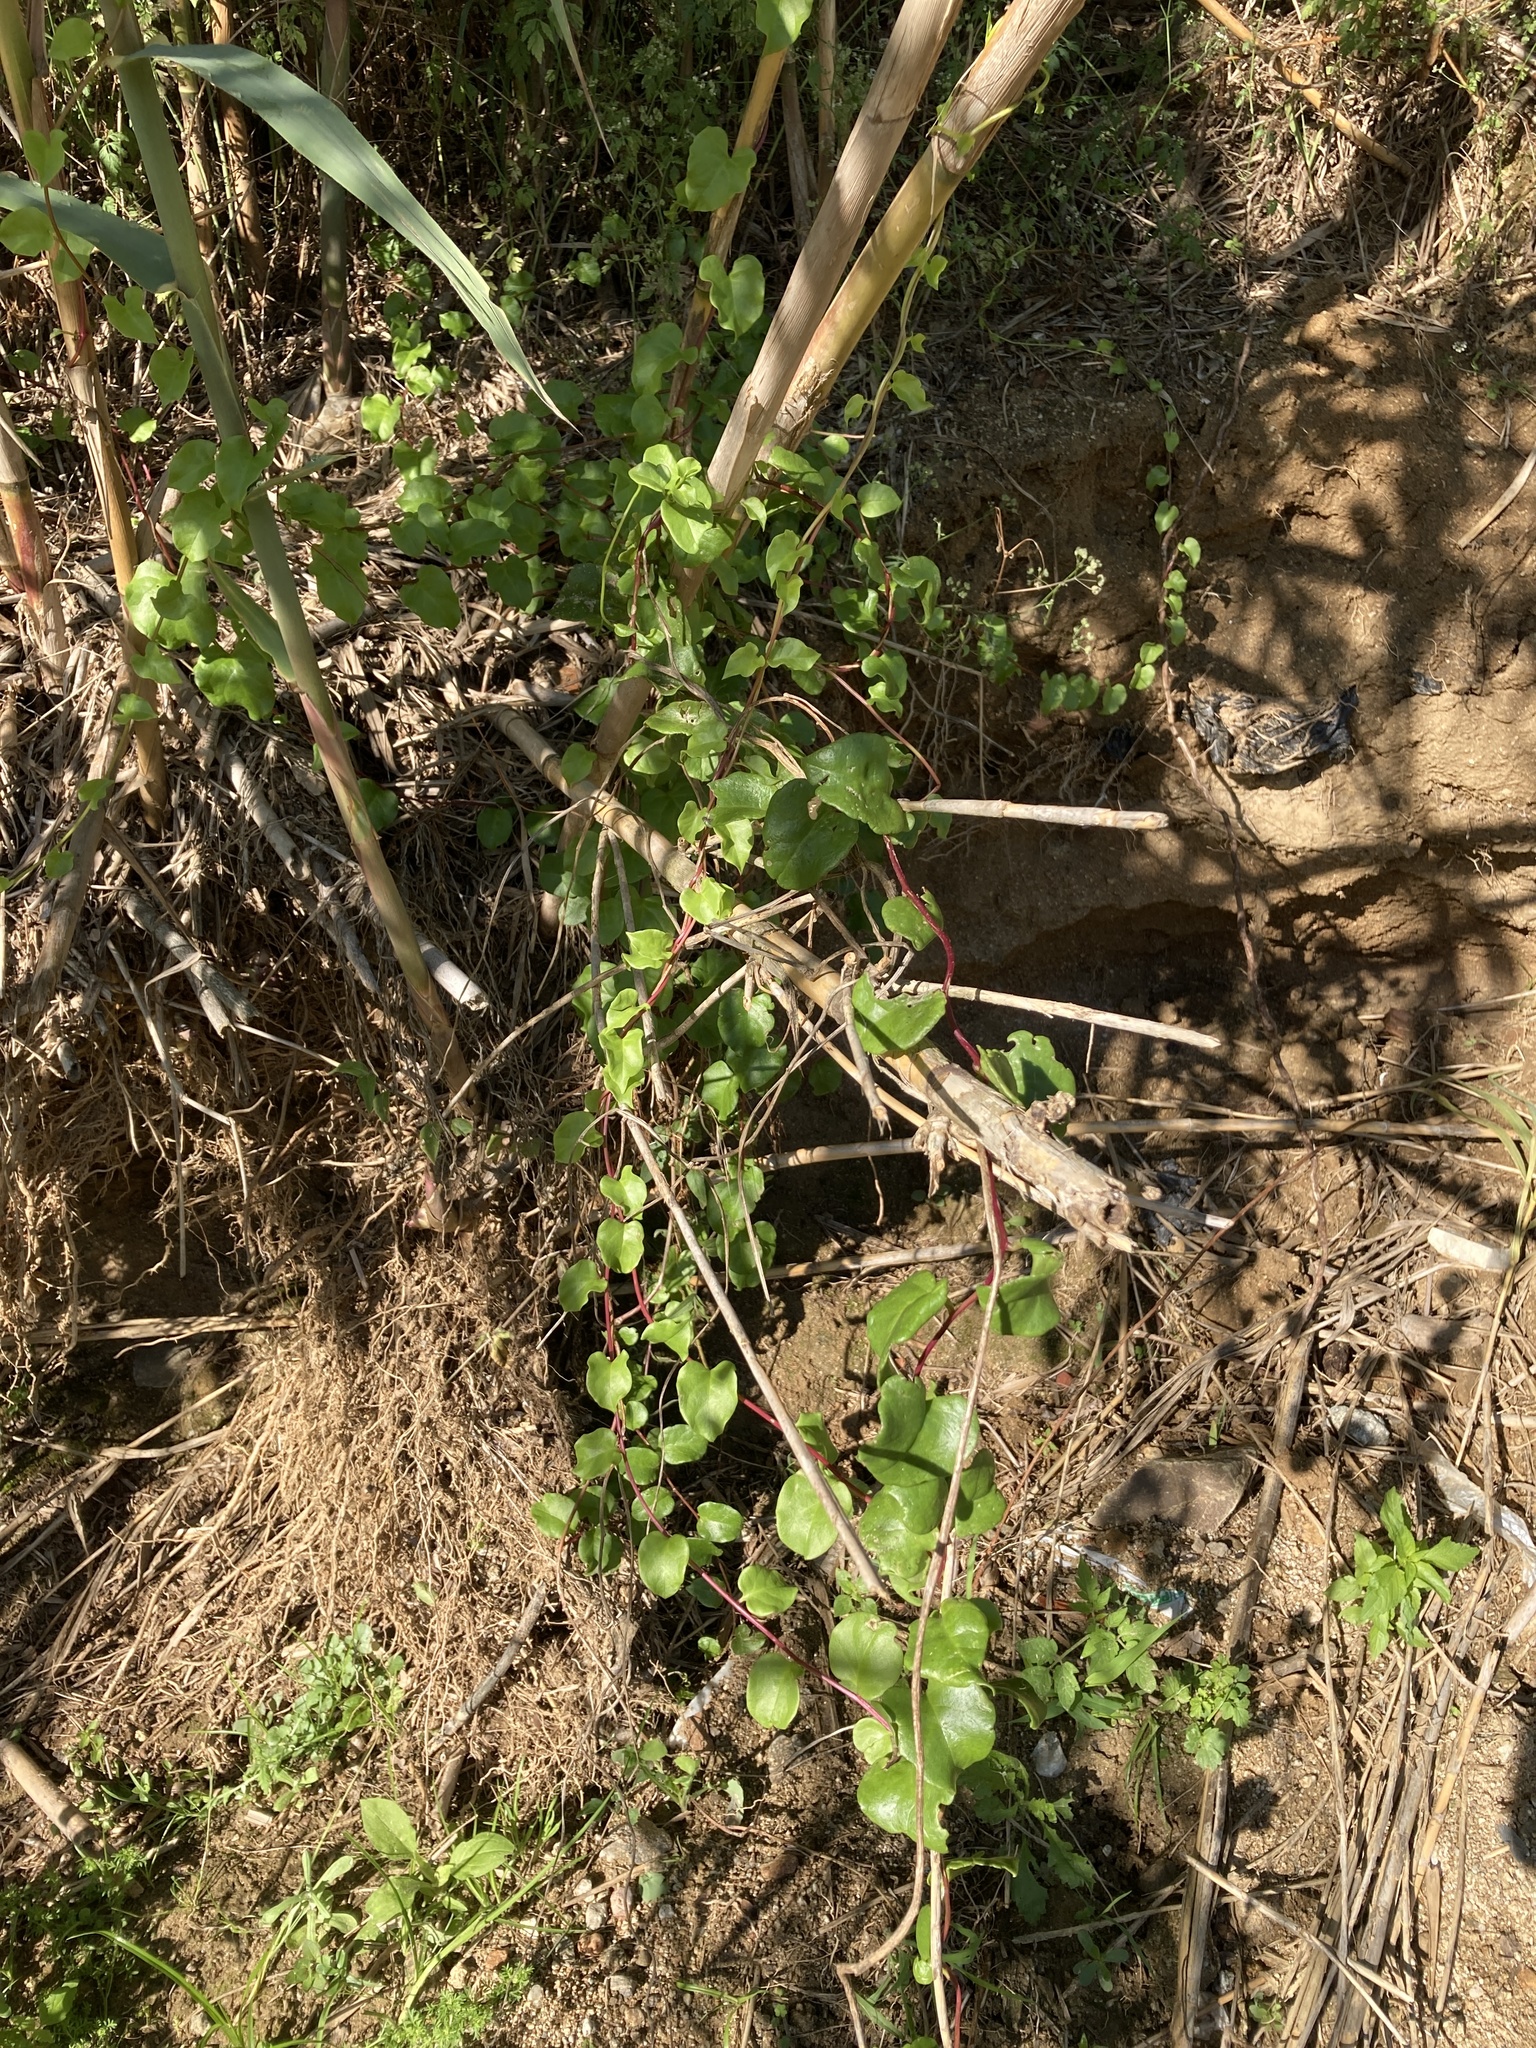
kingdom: Plantae
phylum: Tracheophyta
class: Magnoliopsida
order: Caryophyllales
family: Basellaceae
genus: Anredera
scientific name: Anredera cordifolia
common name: Heartleaf madeiravine
